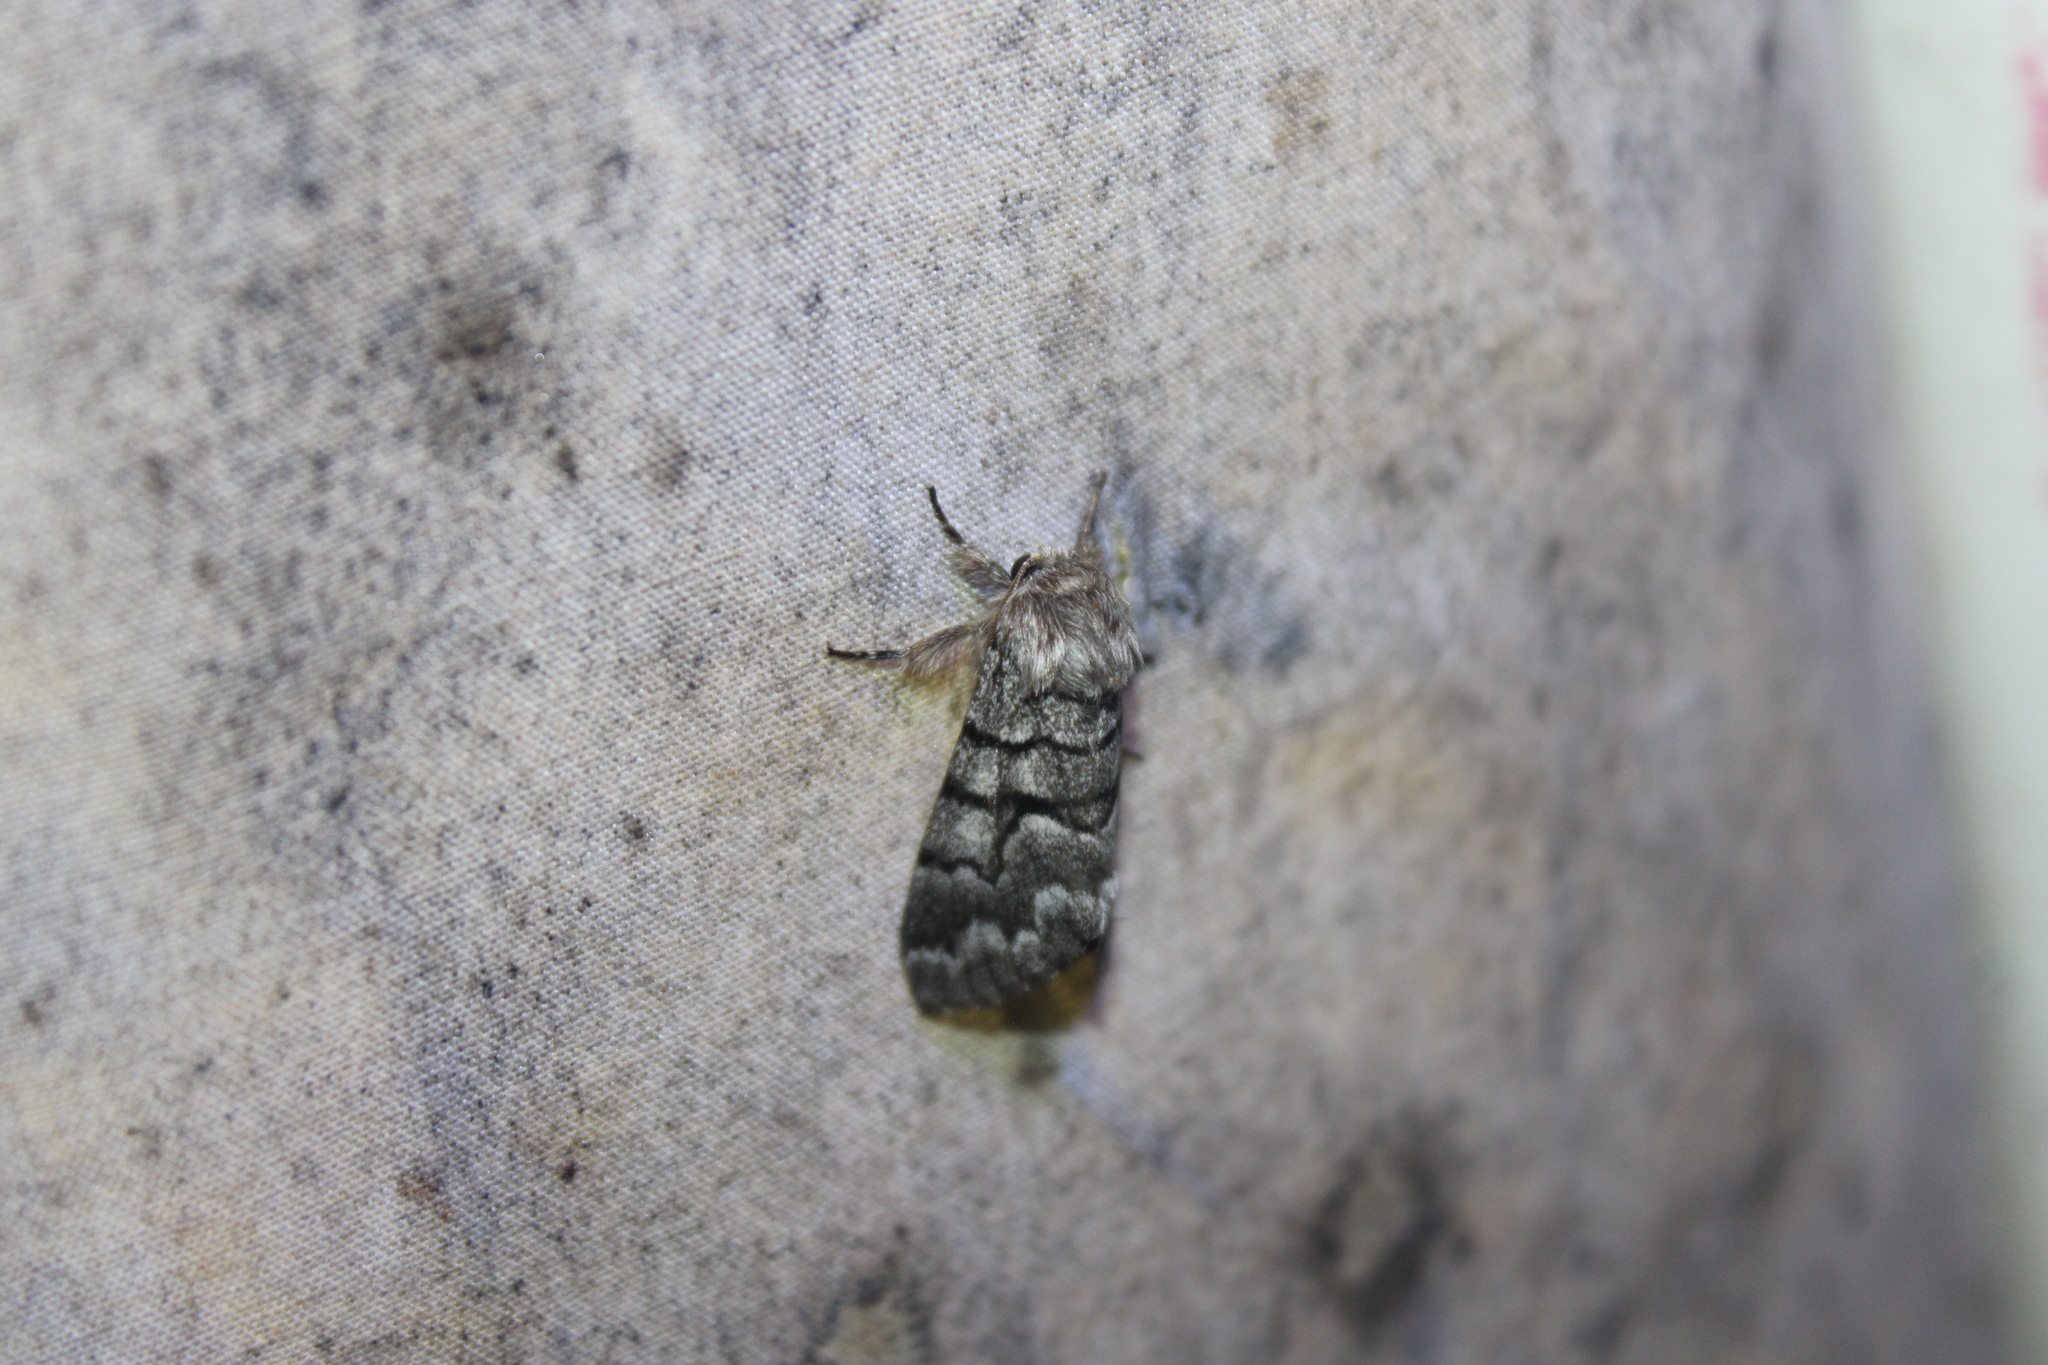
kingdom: Animalia
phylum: Arthropoda
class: Insecta
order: Lepidoptera
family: Noctuidae
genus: Panthea
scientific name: Panthea furcilla
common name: Eastern panthea moth
